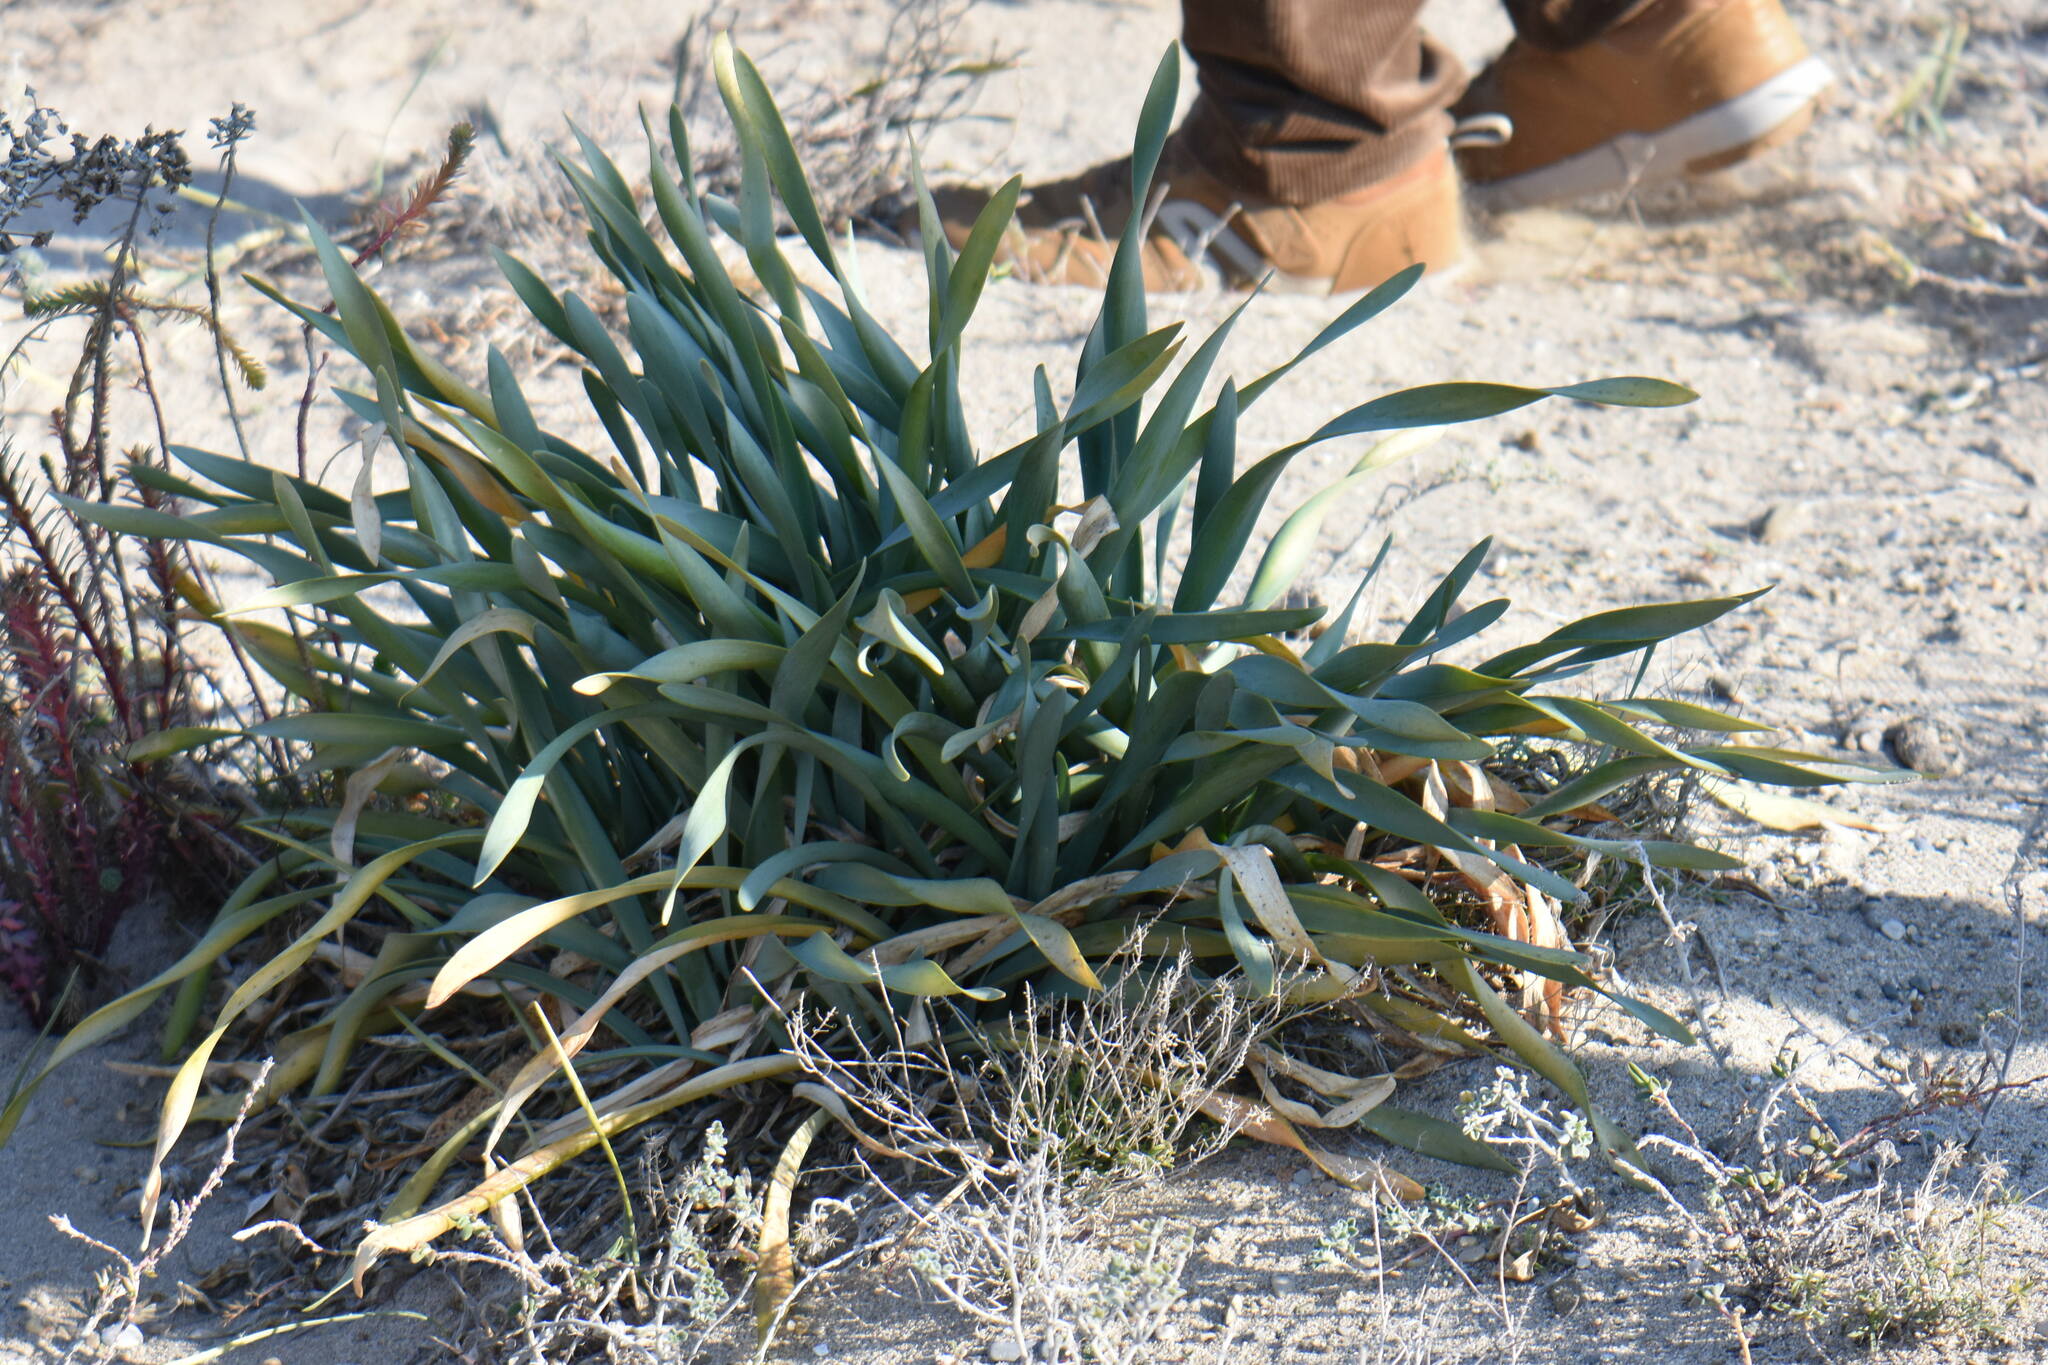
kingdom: Plantae
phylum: Tracheophyta
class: Liliopsida
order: Asparagales
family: Amaryllidaceae
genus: Pancratium
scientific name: Pancratium maritimum
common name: Sea-daffodil
